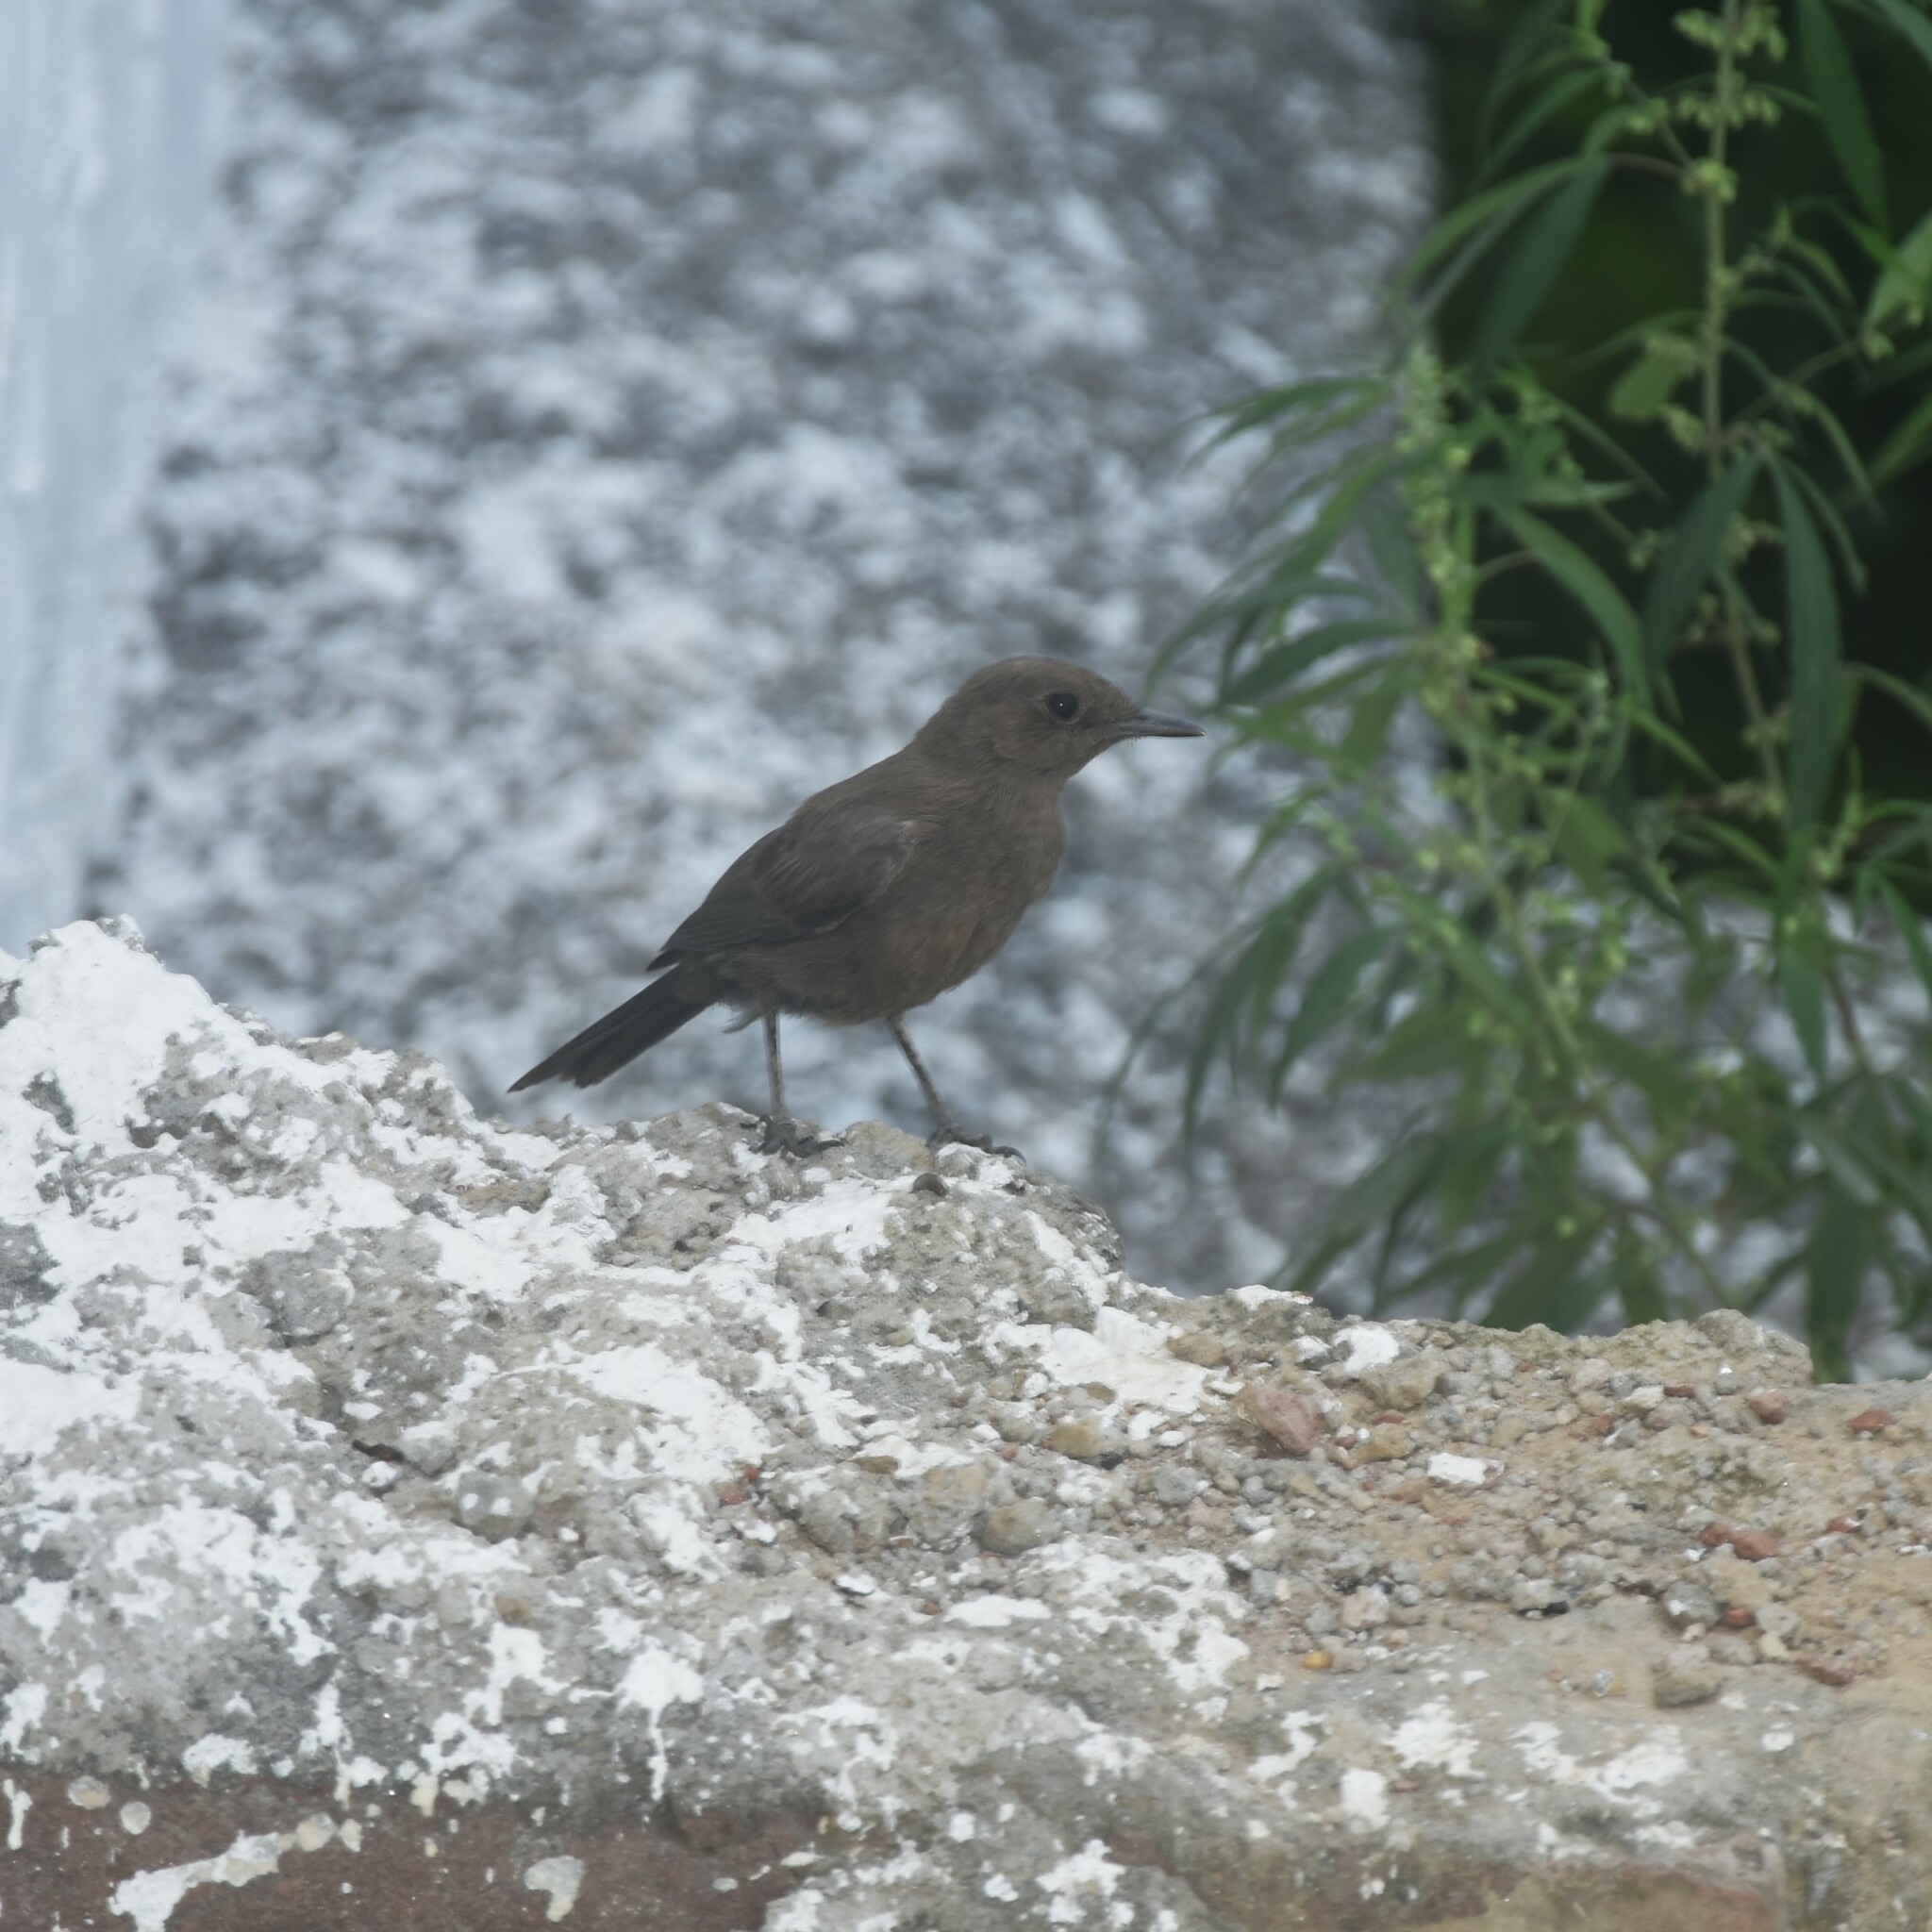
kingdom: Animalia
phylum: Chordata
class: Aves
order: Passeriformes
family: Muscicapidae
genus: Oenanthe
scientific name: Oenanthe fusca
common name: Brown rock chat
